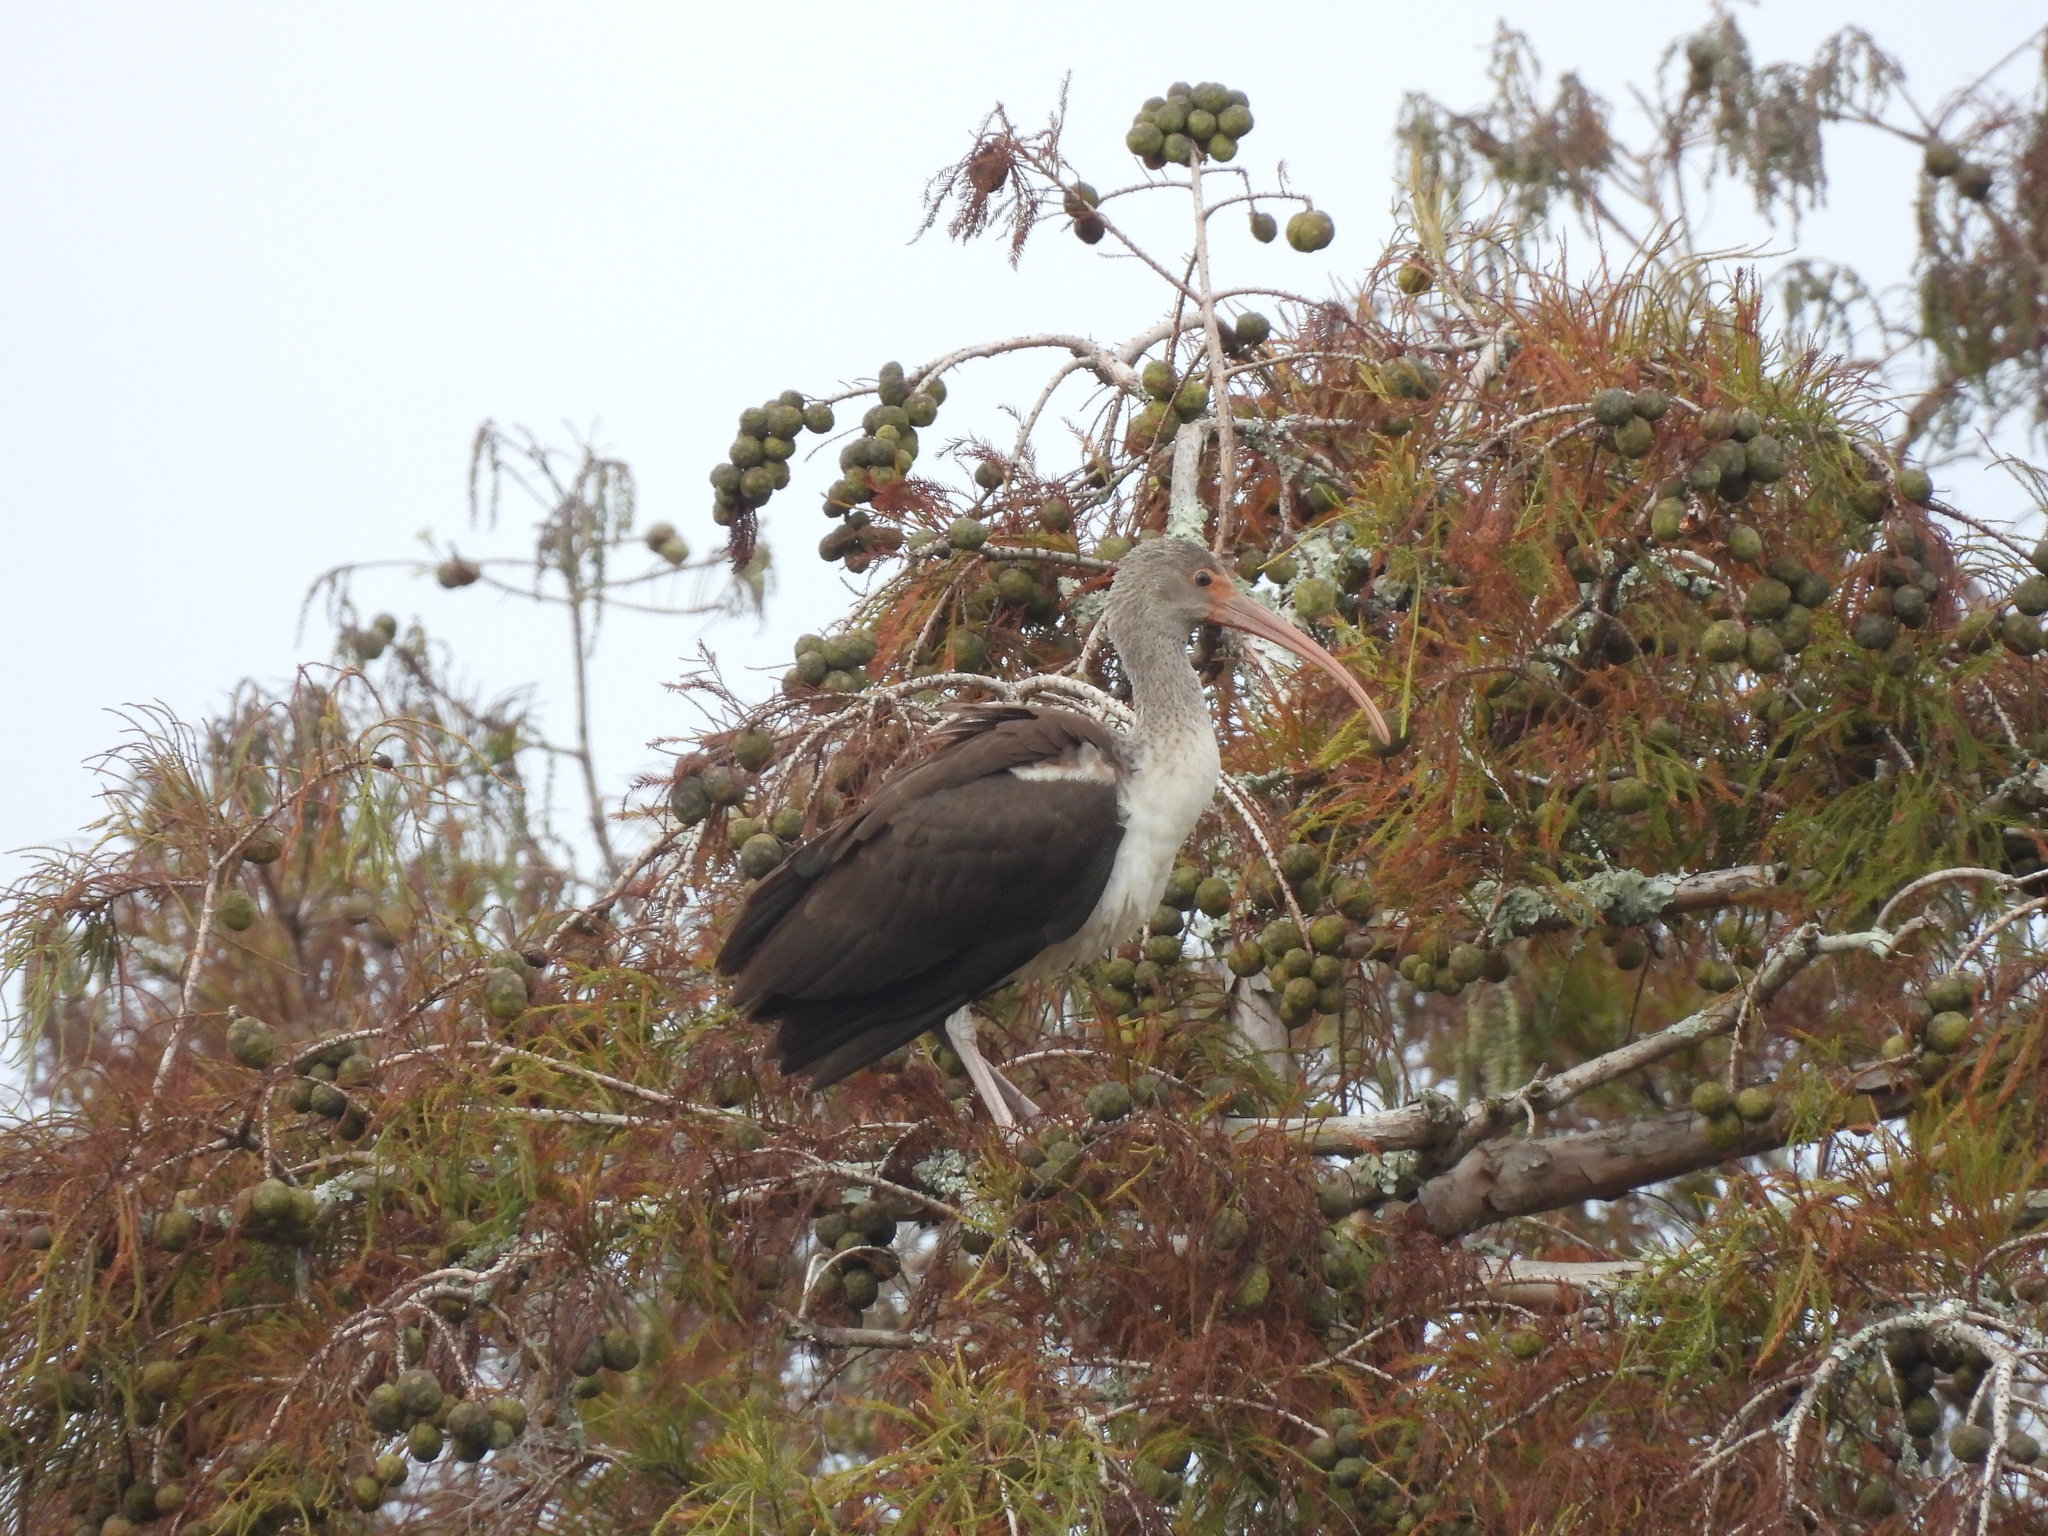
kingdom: Animalia
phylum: Chordata
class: Aves
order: Pelecaniformes
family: Threskiornithidae
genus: Eudocimus
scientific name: Eudocimus albus
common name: White ibis
